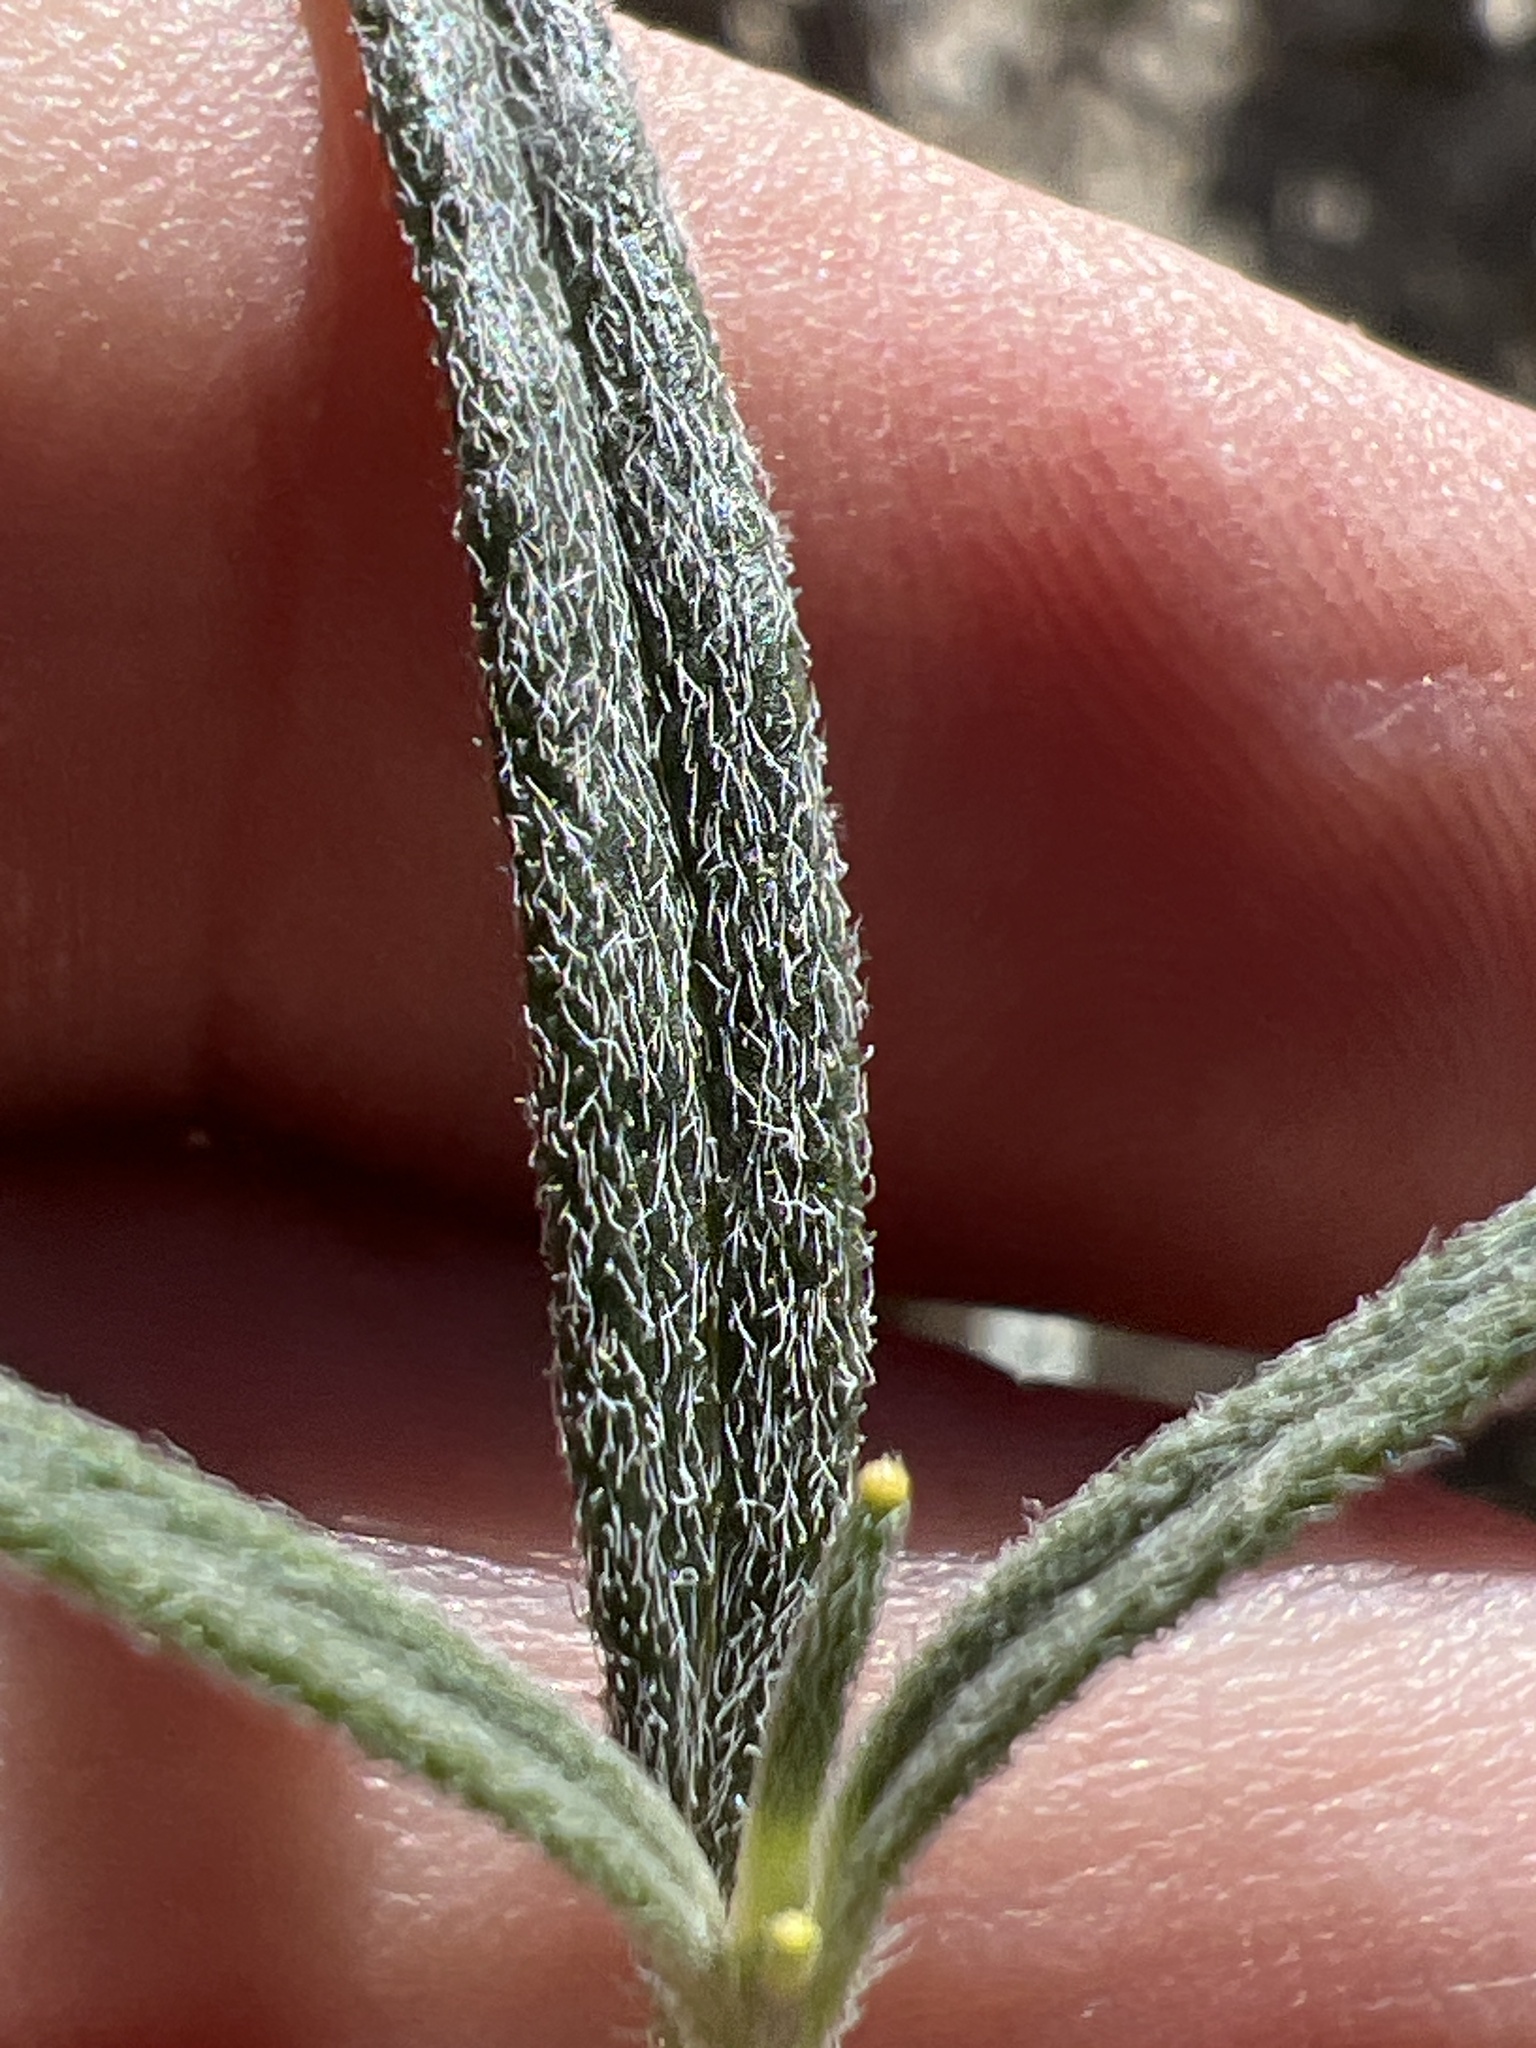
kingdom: Plantae
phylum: Tracheophyta
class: Magnoliopsida
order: Asterales
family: Asteraceae
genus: Palafoxia
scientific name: Palafoxia arida
